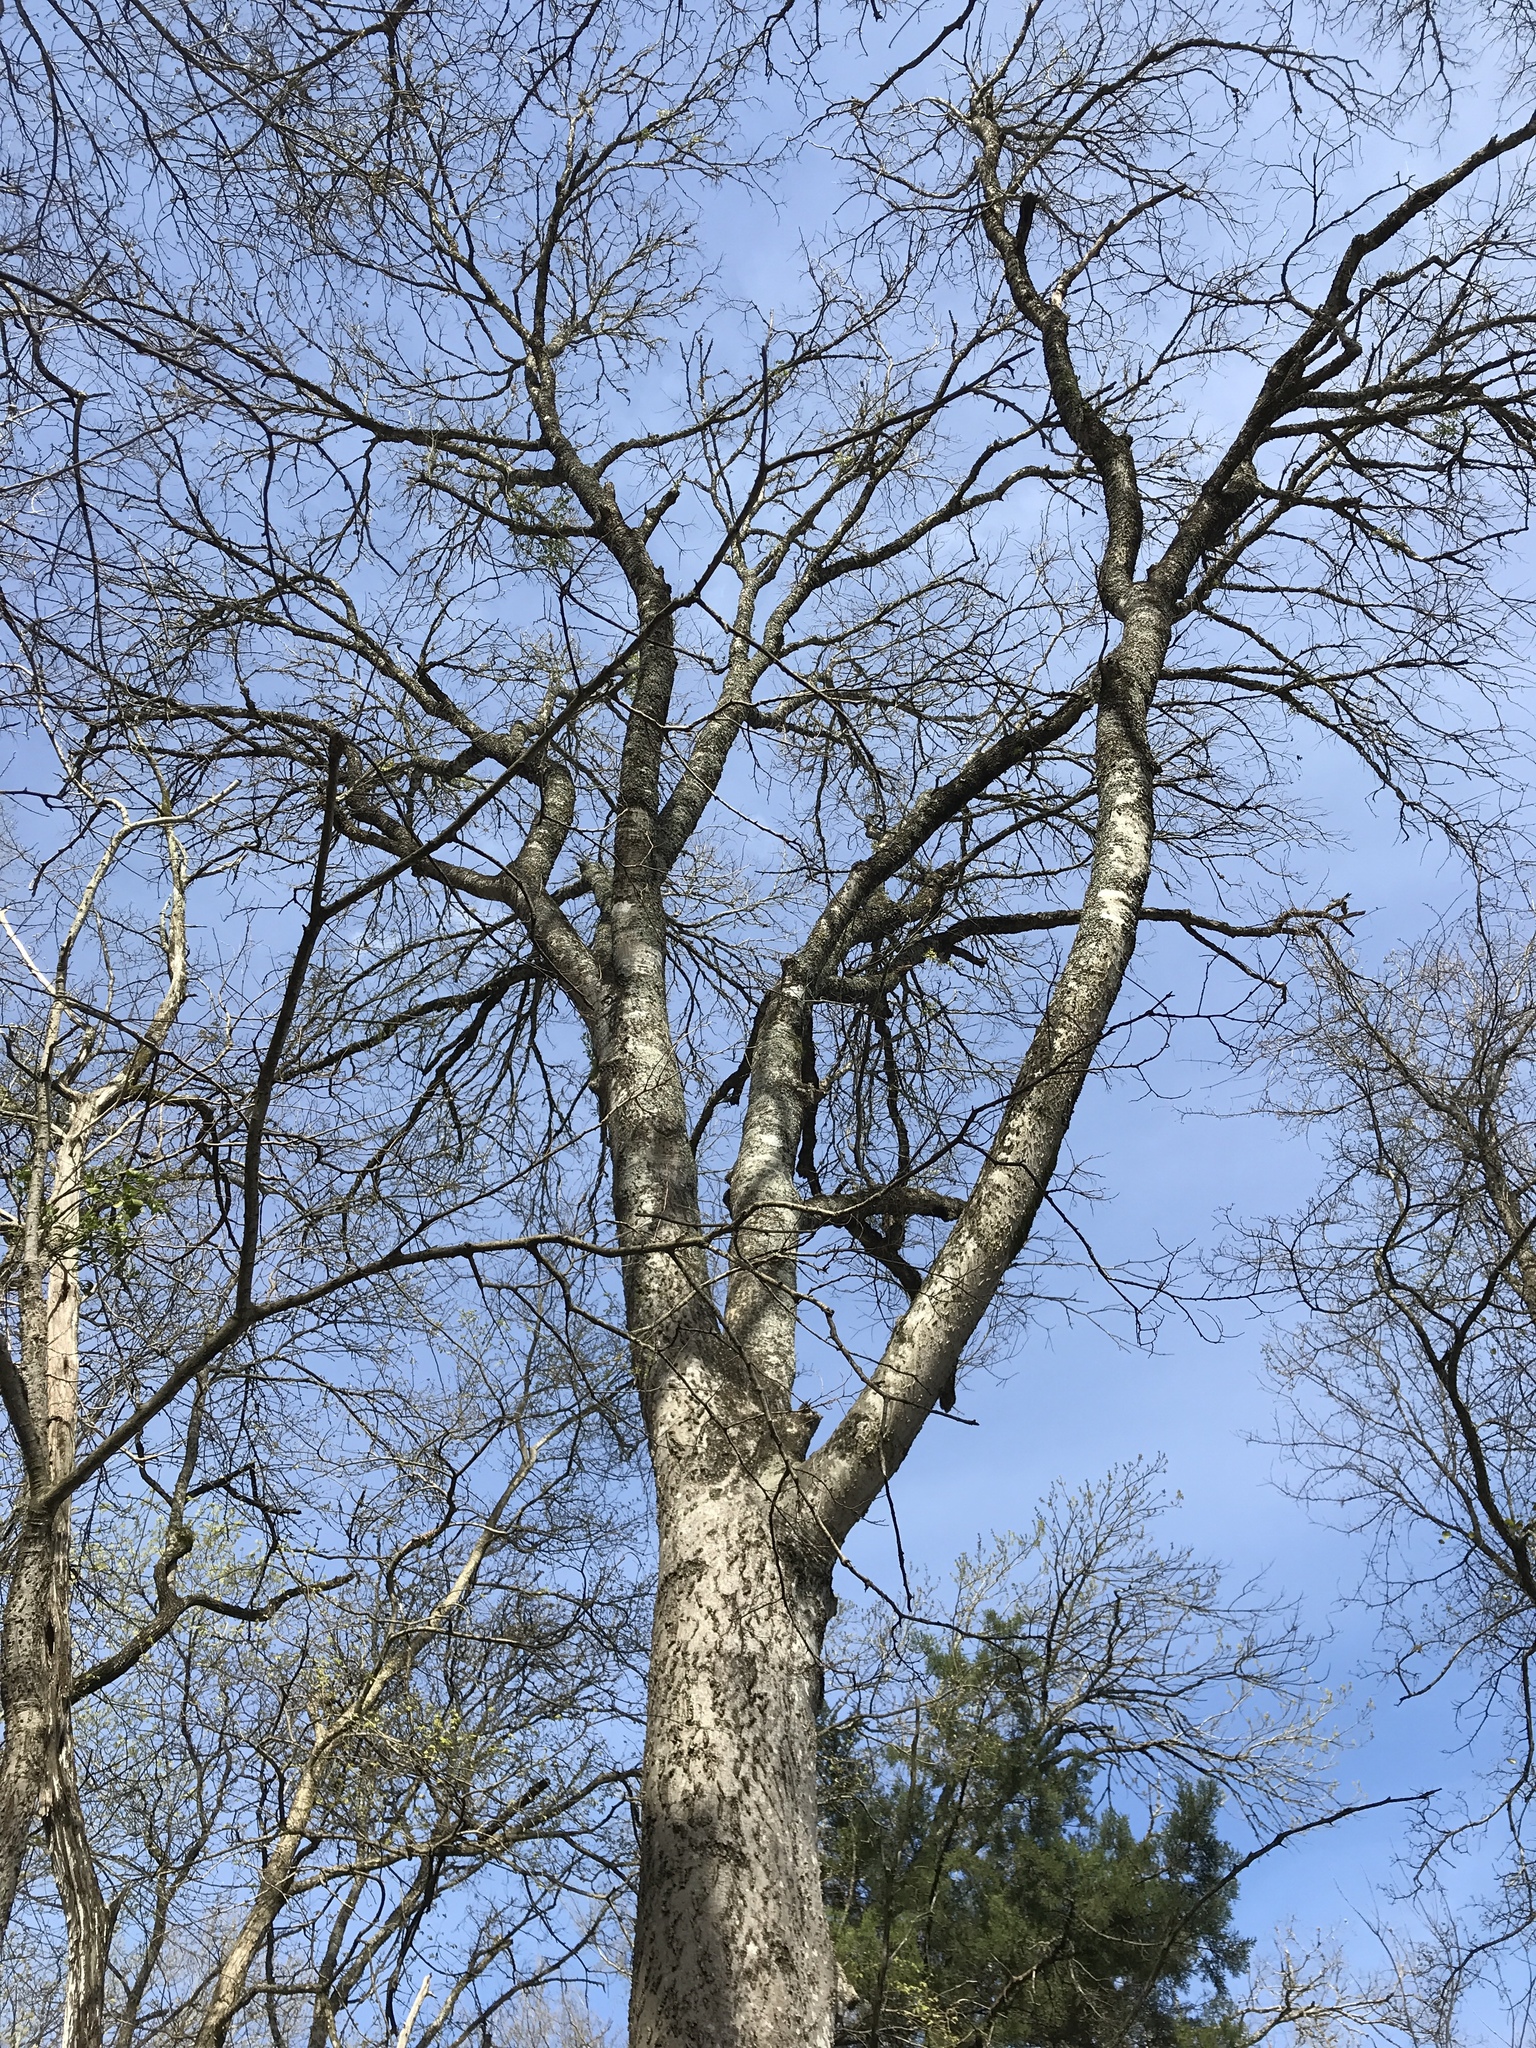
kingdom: Plantae
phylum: Tracheophyta
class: Magnoliopsida
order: Rosales
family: Cannabaceae
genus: Celtis
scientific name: Celtis laevigata
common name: Sugarberry
